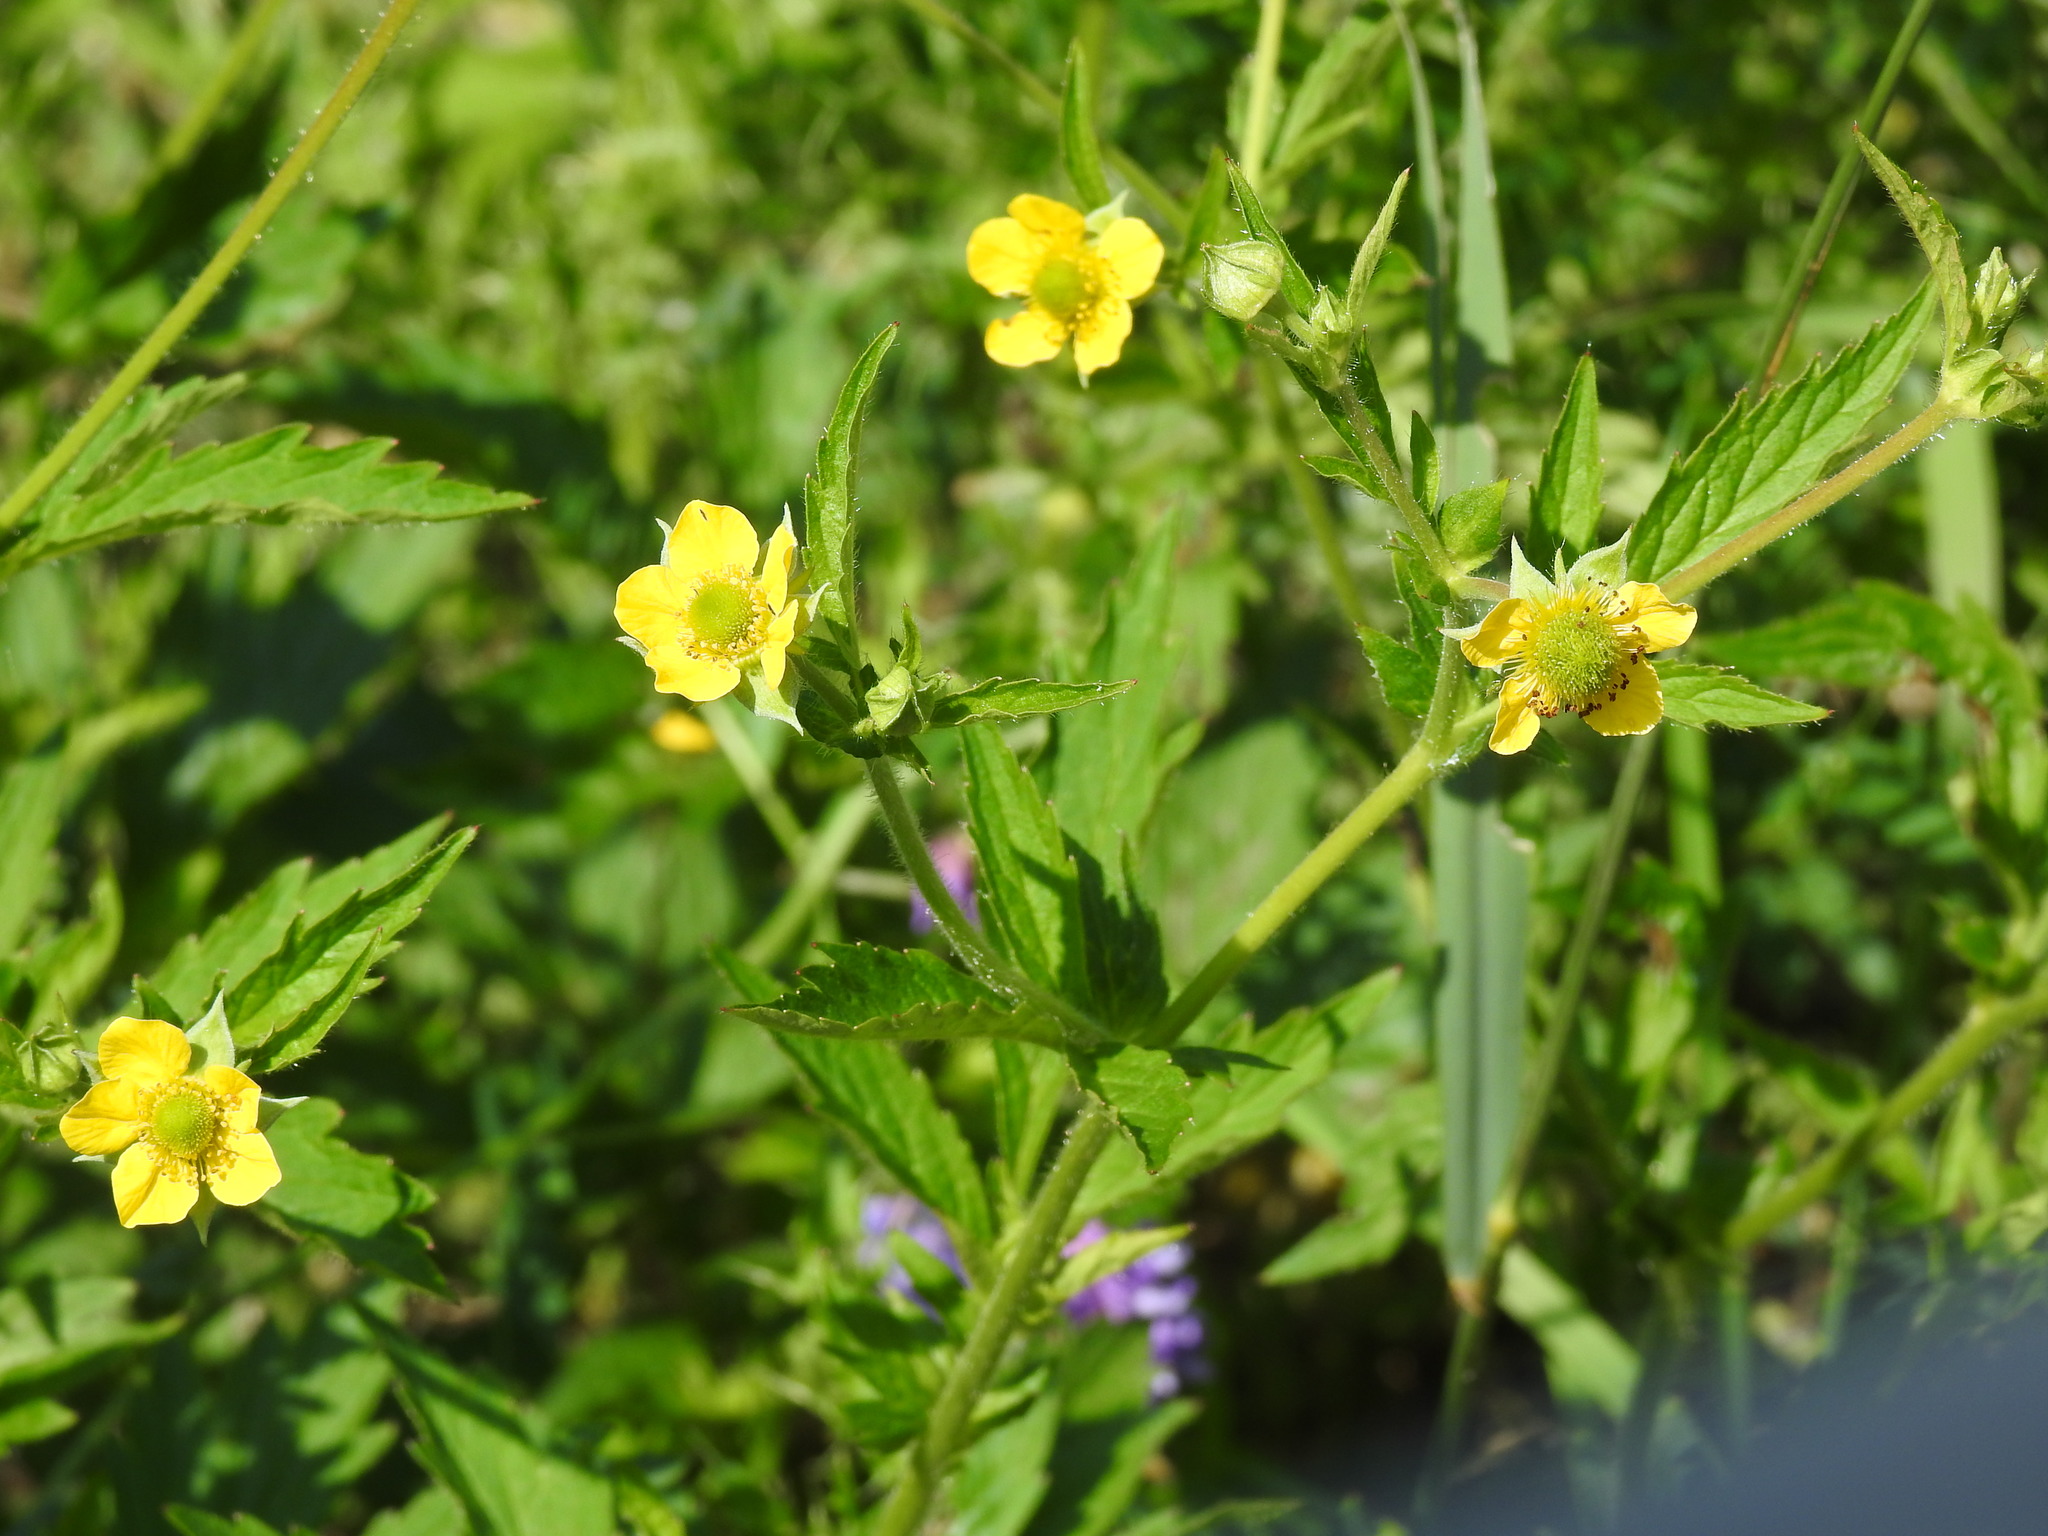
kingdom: Plantae
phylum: Tracheophyta
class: Magnoliopsida
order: Rosales
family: Rosaceae
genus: Geum
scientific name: Geum aleppicum
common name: Yellow avens
